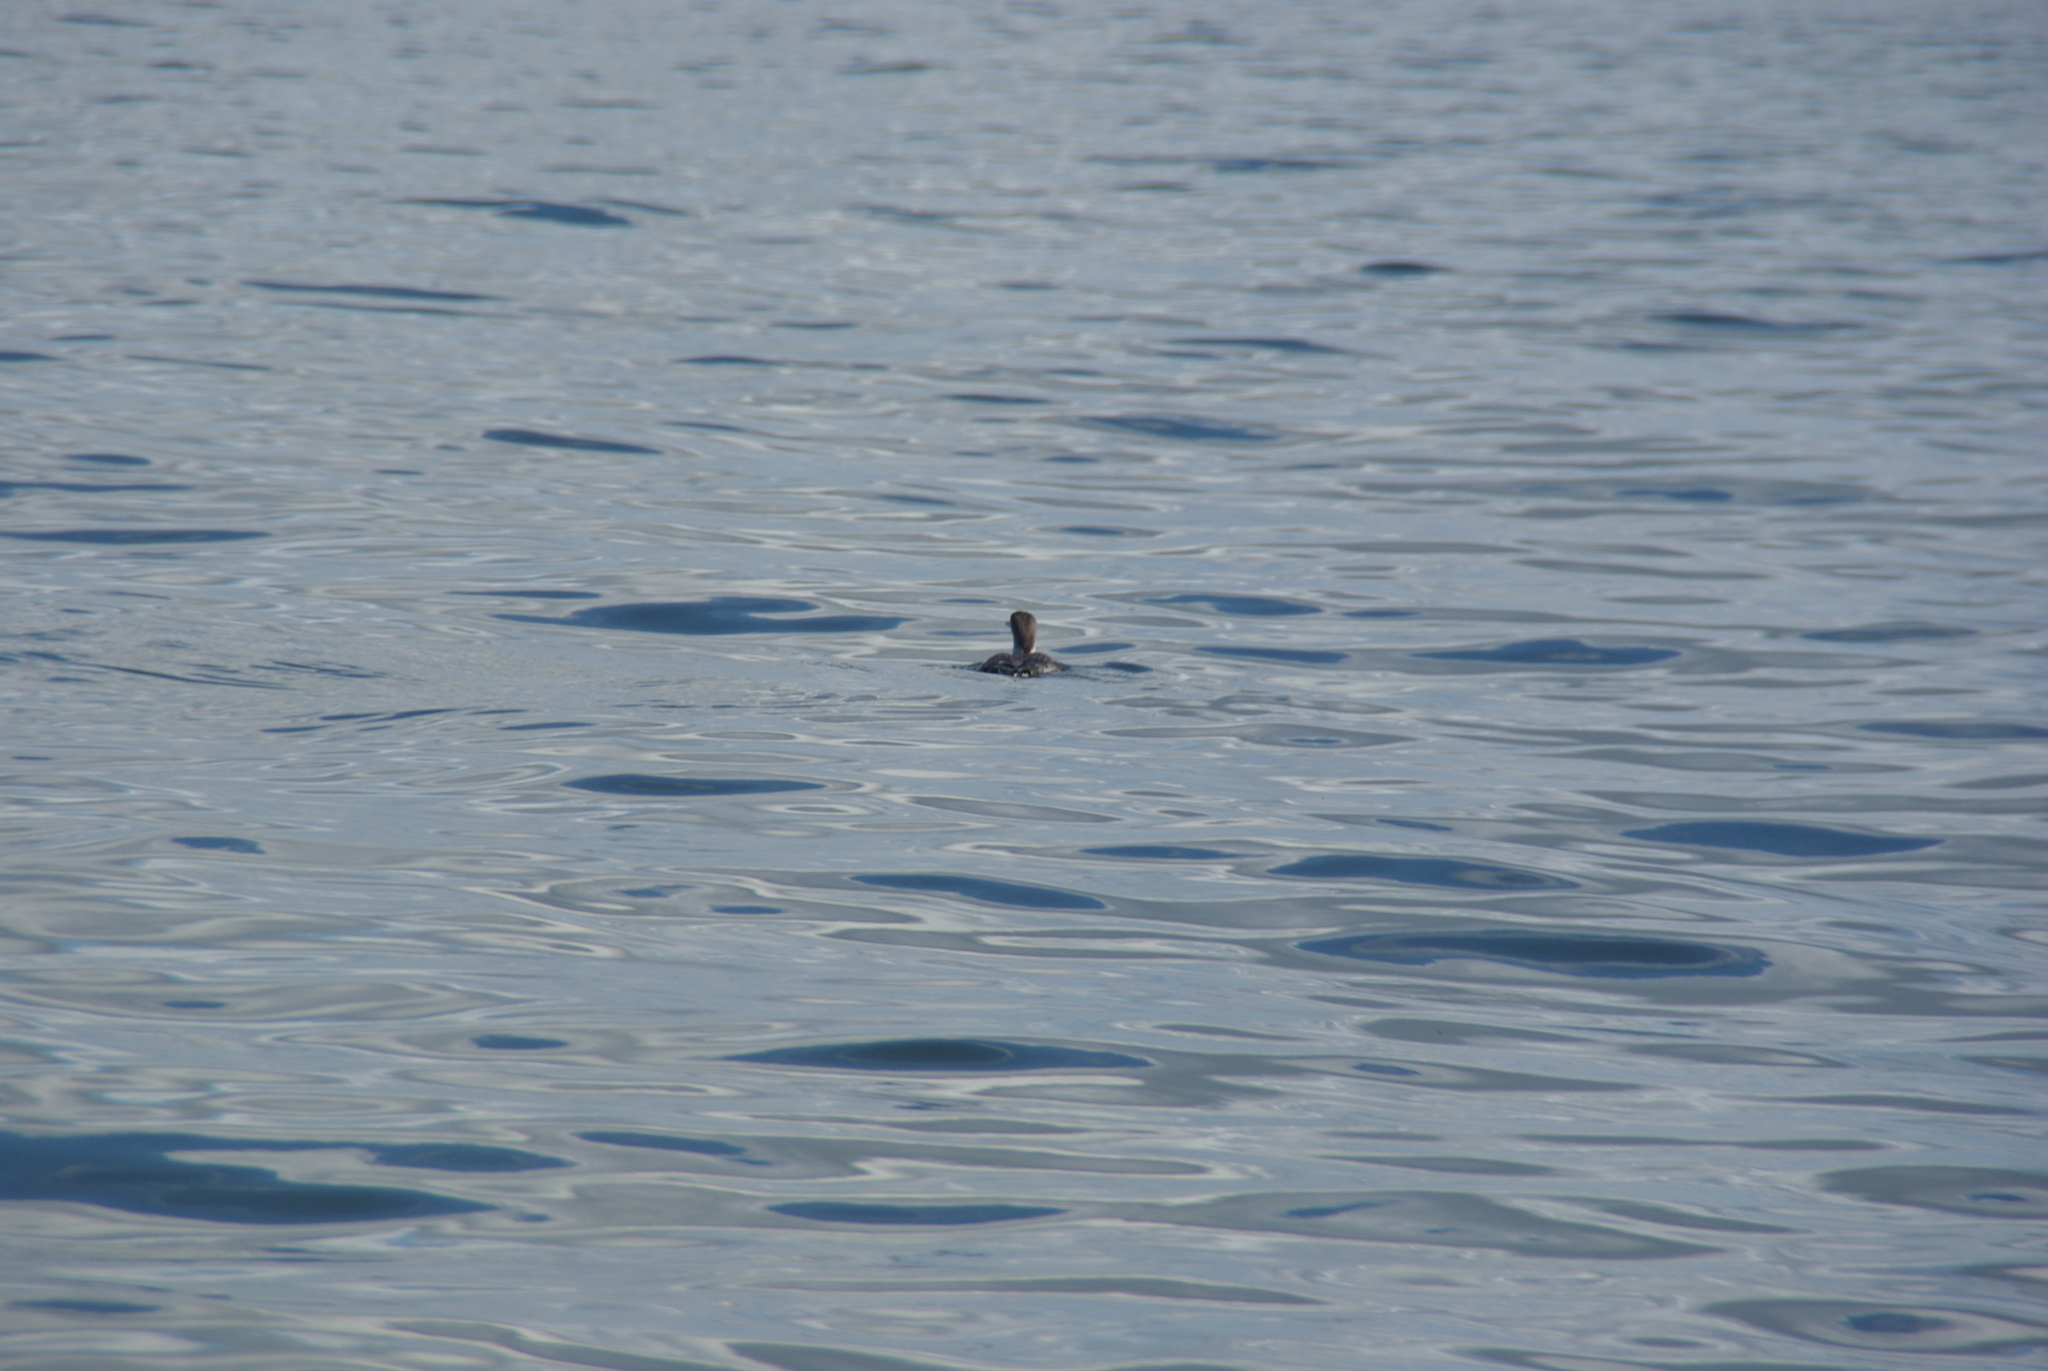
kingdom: Animalia
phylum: Chordata
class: Aves
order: Gaviiformes
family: Gaviidae
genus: Gavia
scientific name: Gavia immer
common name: Common loon
